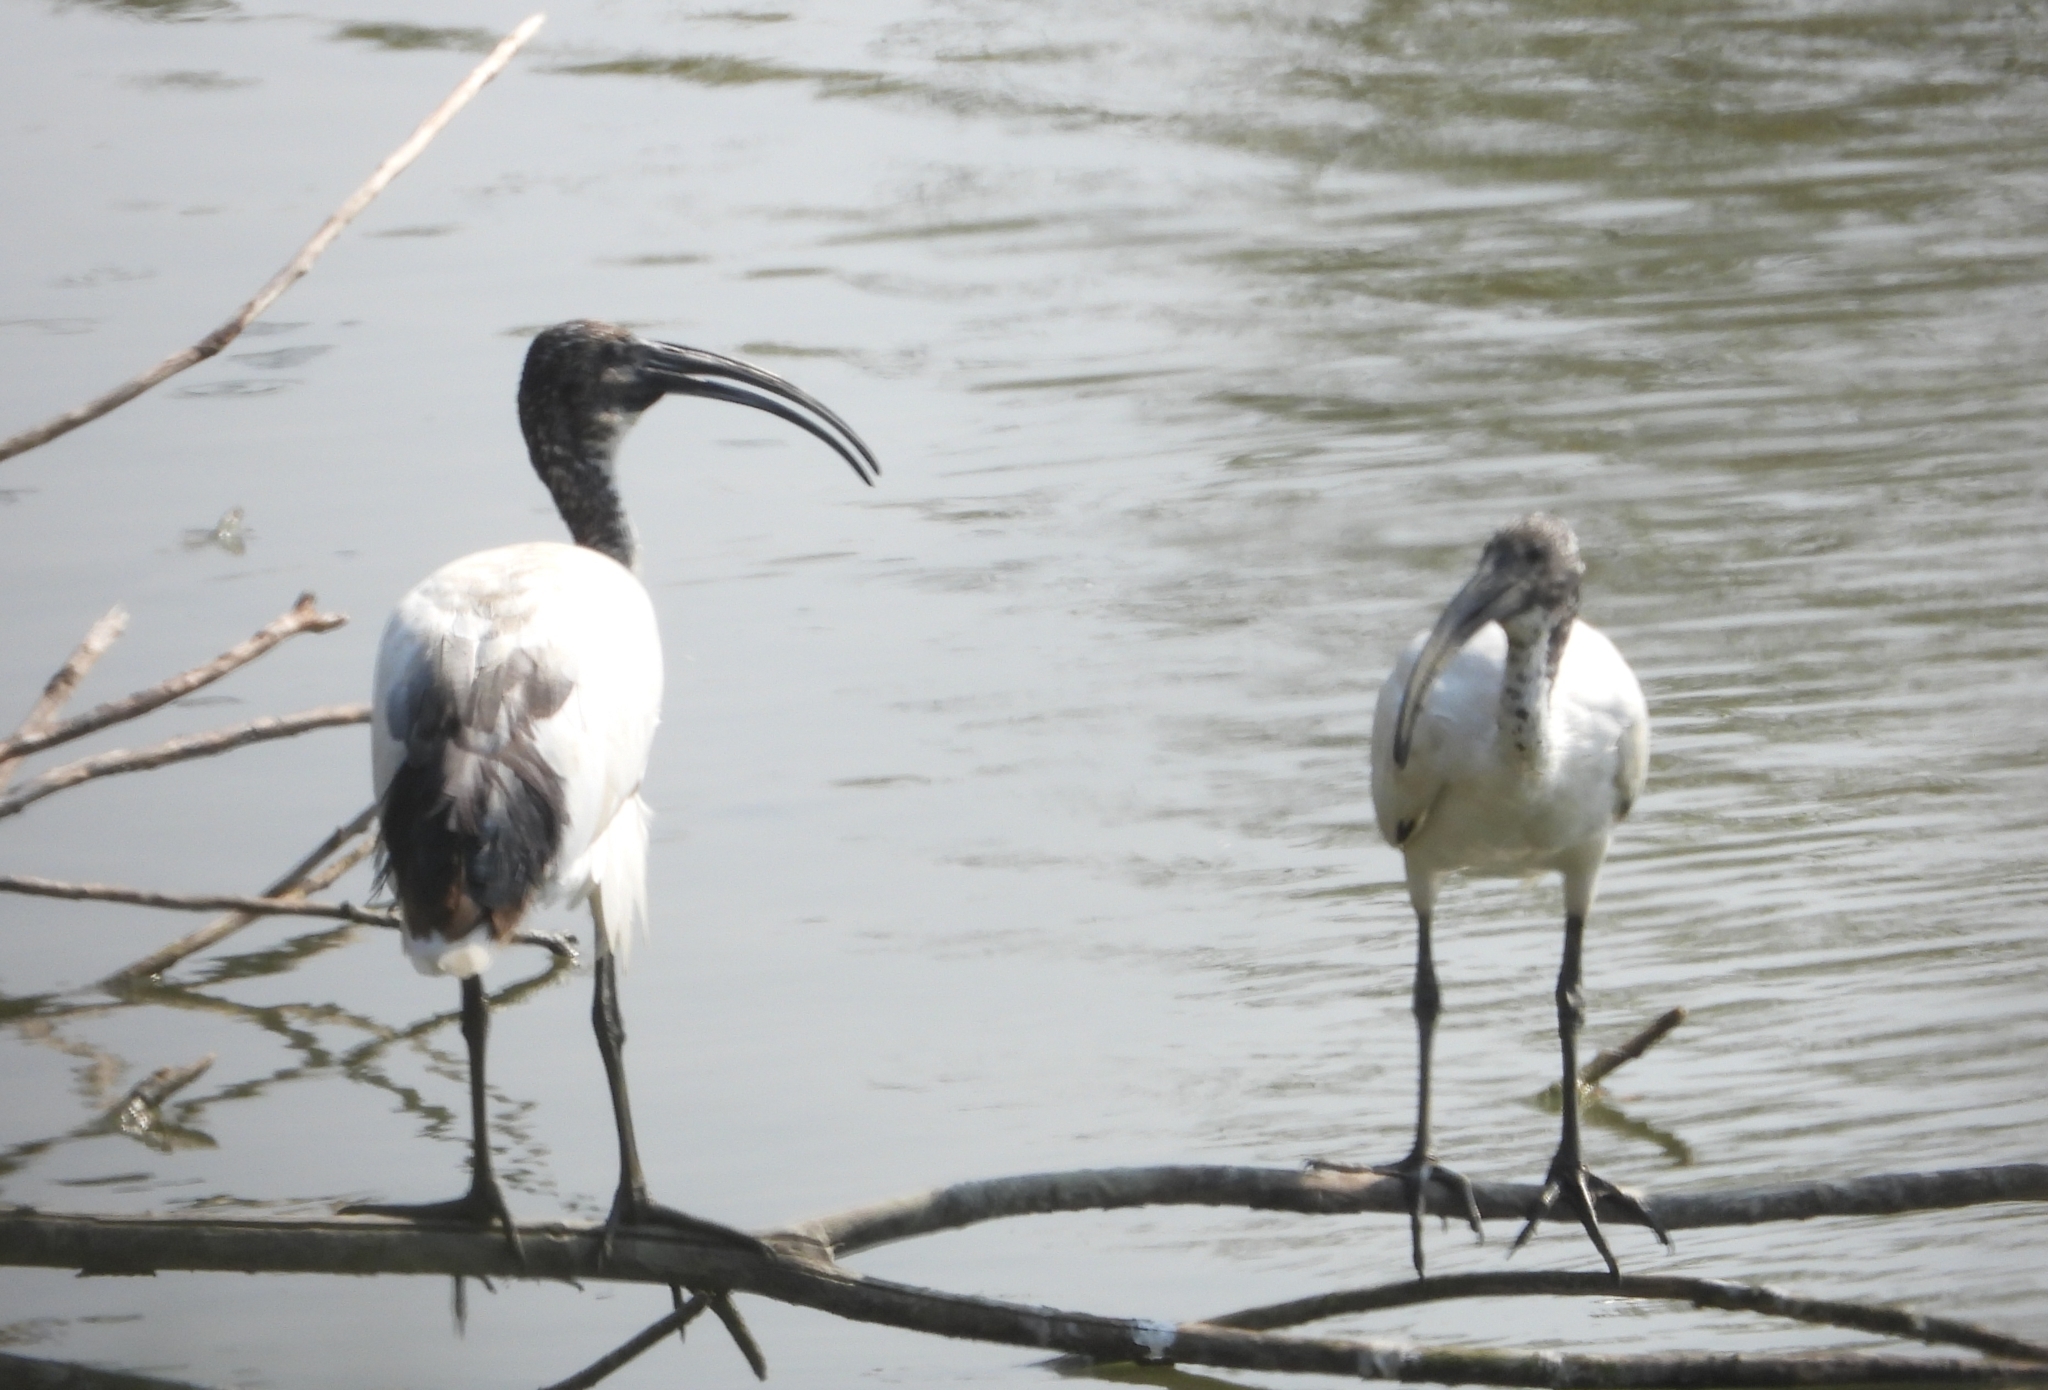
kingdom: Animalia
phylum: Chordata
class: Aves
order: Pelecaniformes
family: Threskiornithidae
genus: Threskiornis
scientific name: Threskiornis aethiopicus
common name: Sacred ibis
